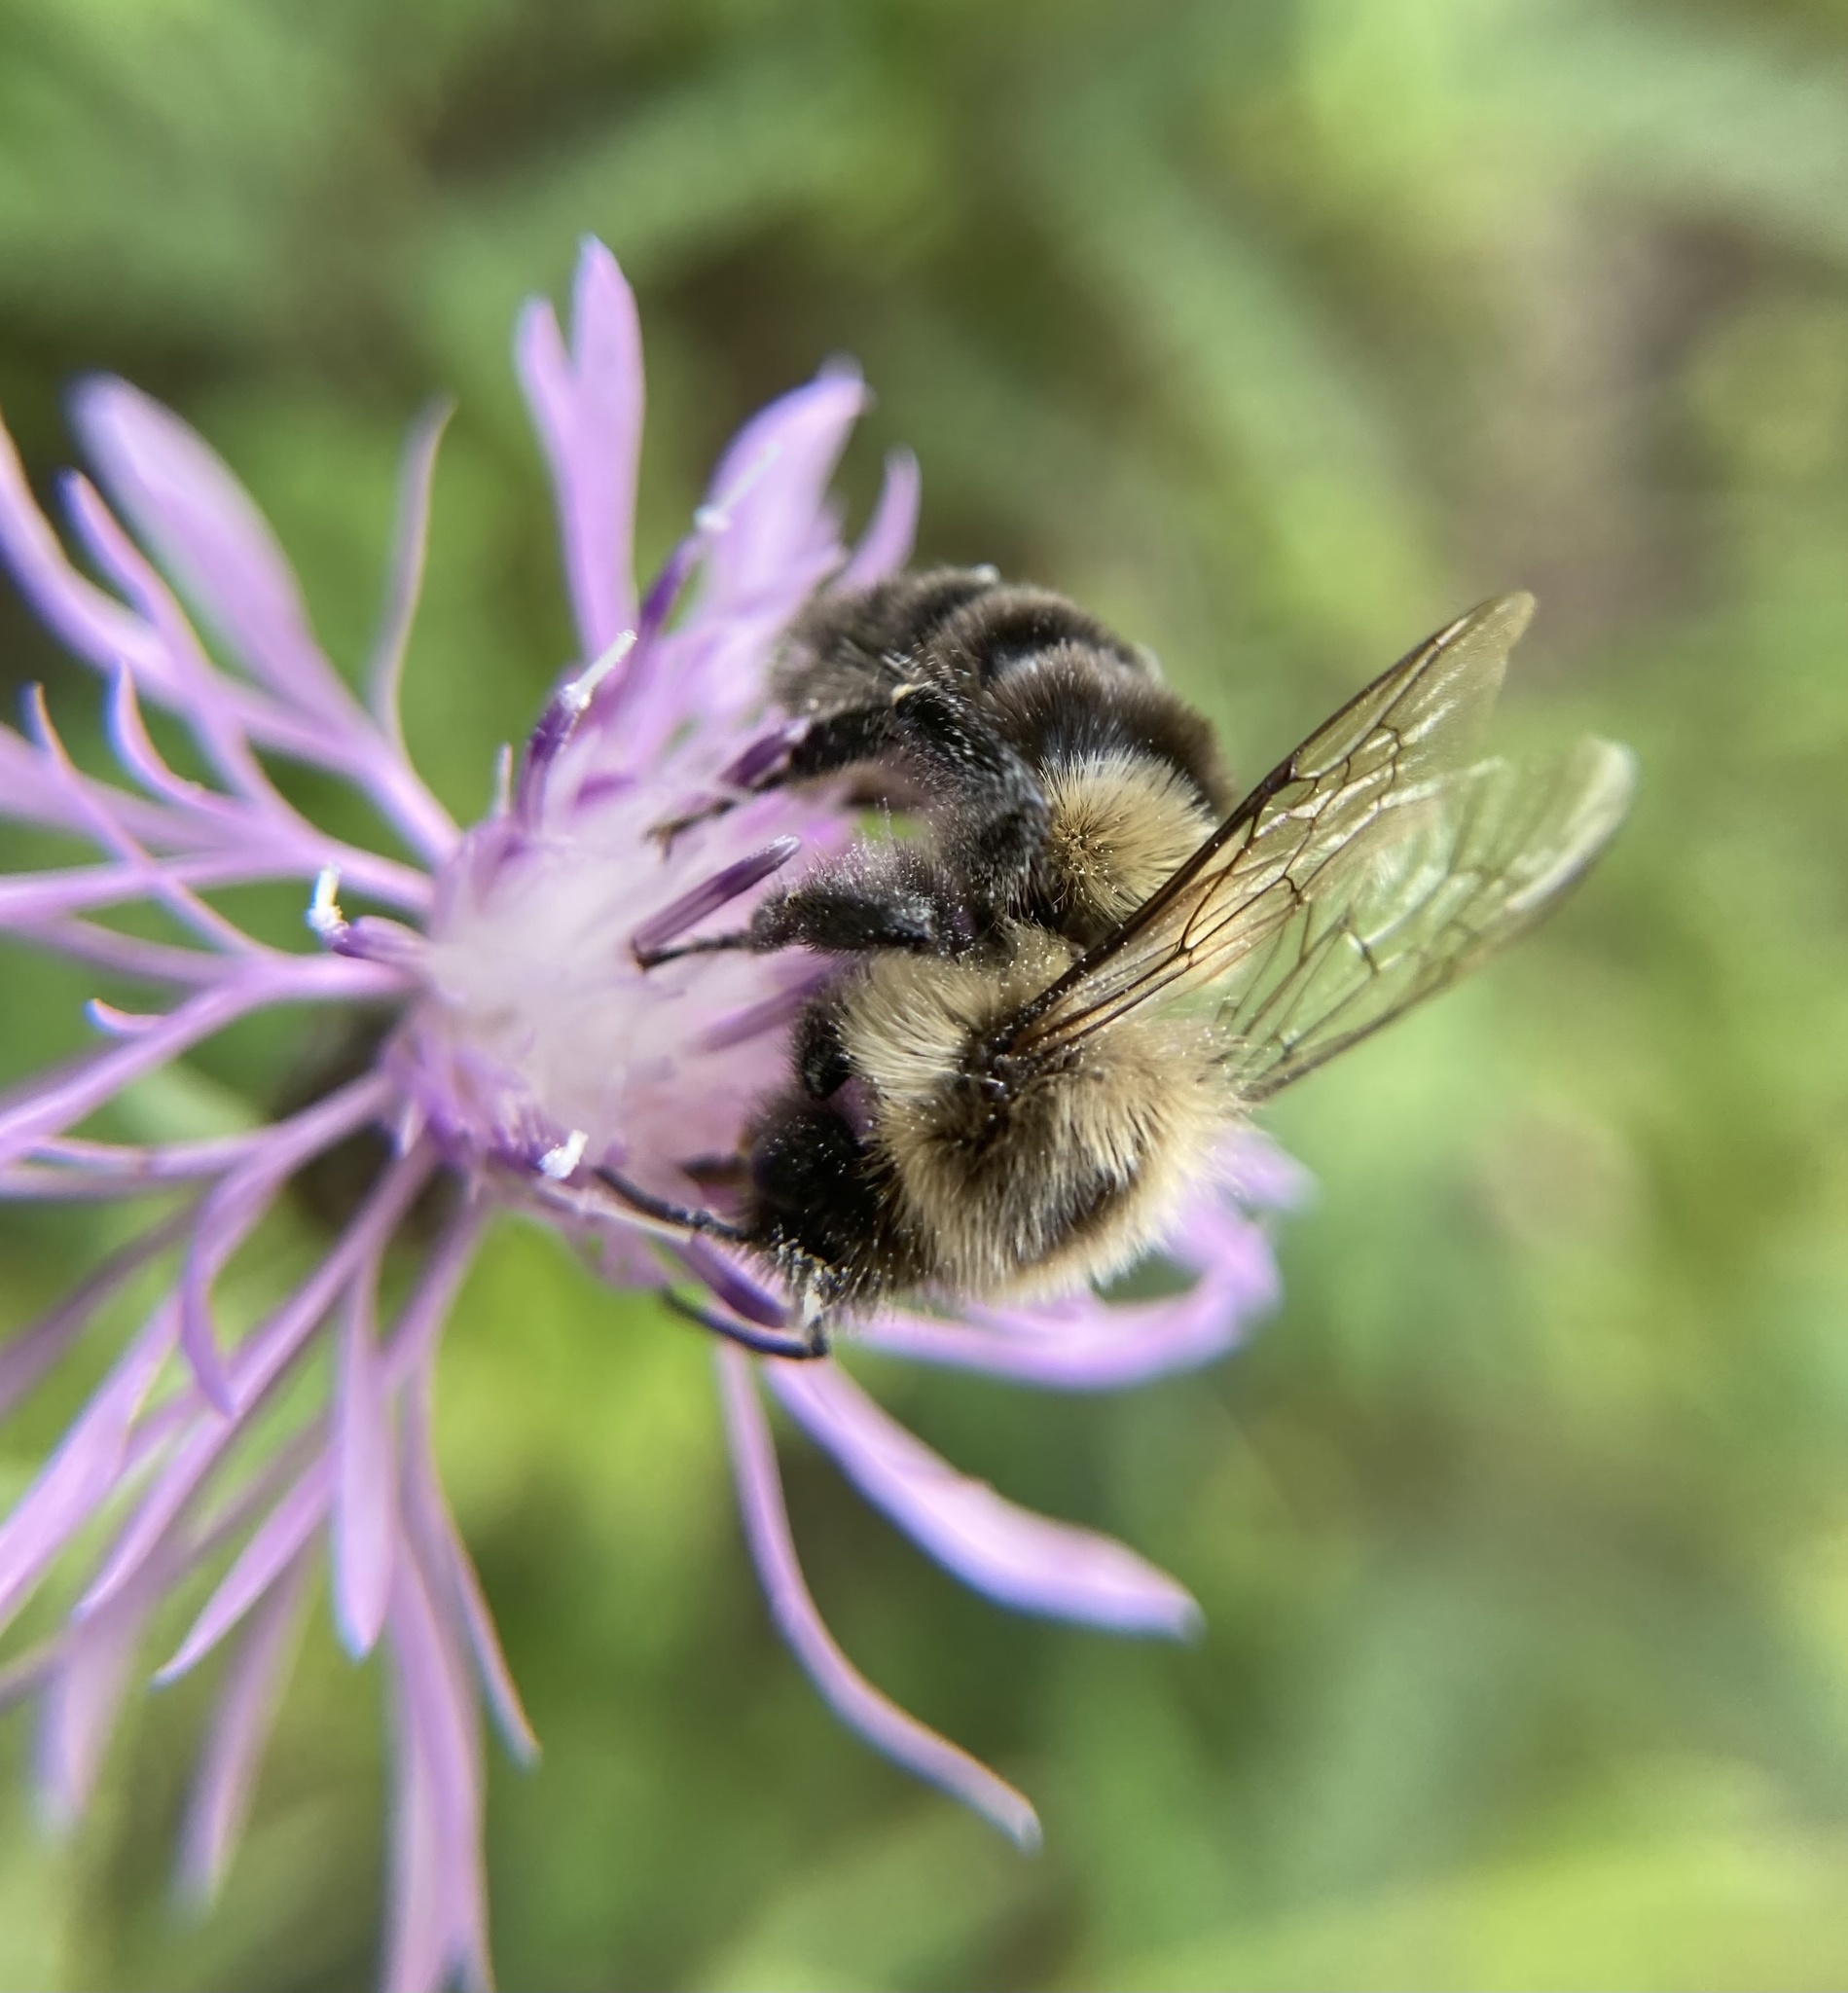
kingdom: Animalia
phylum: Arthropoda
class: Insecta
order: Hymenoptera
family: Apidae
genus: Bombus
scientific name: Bombus impatiens
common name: Common eastern bumble bee
